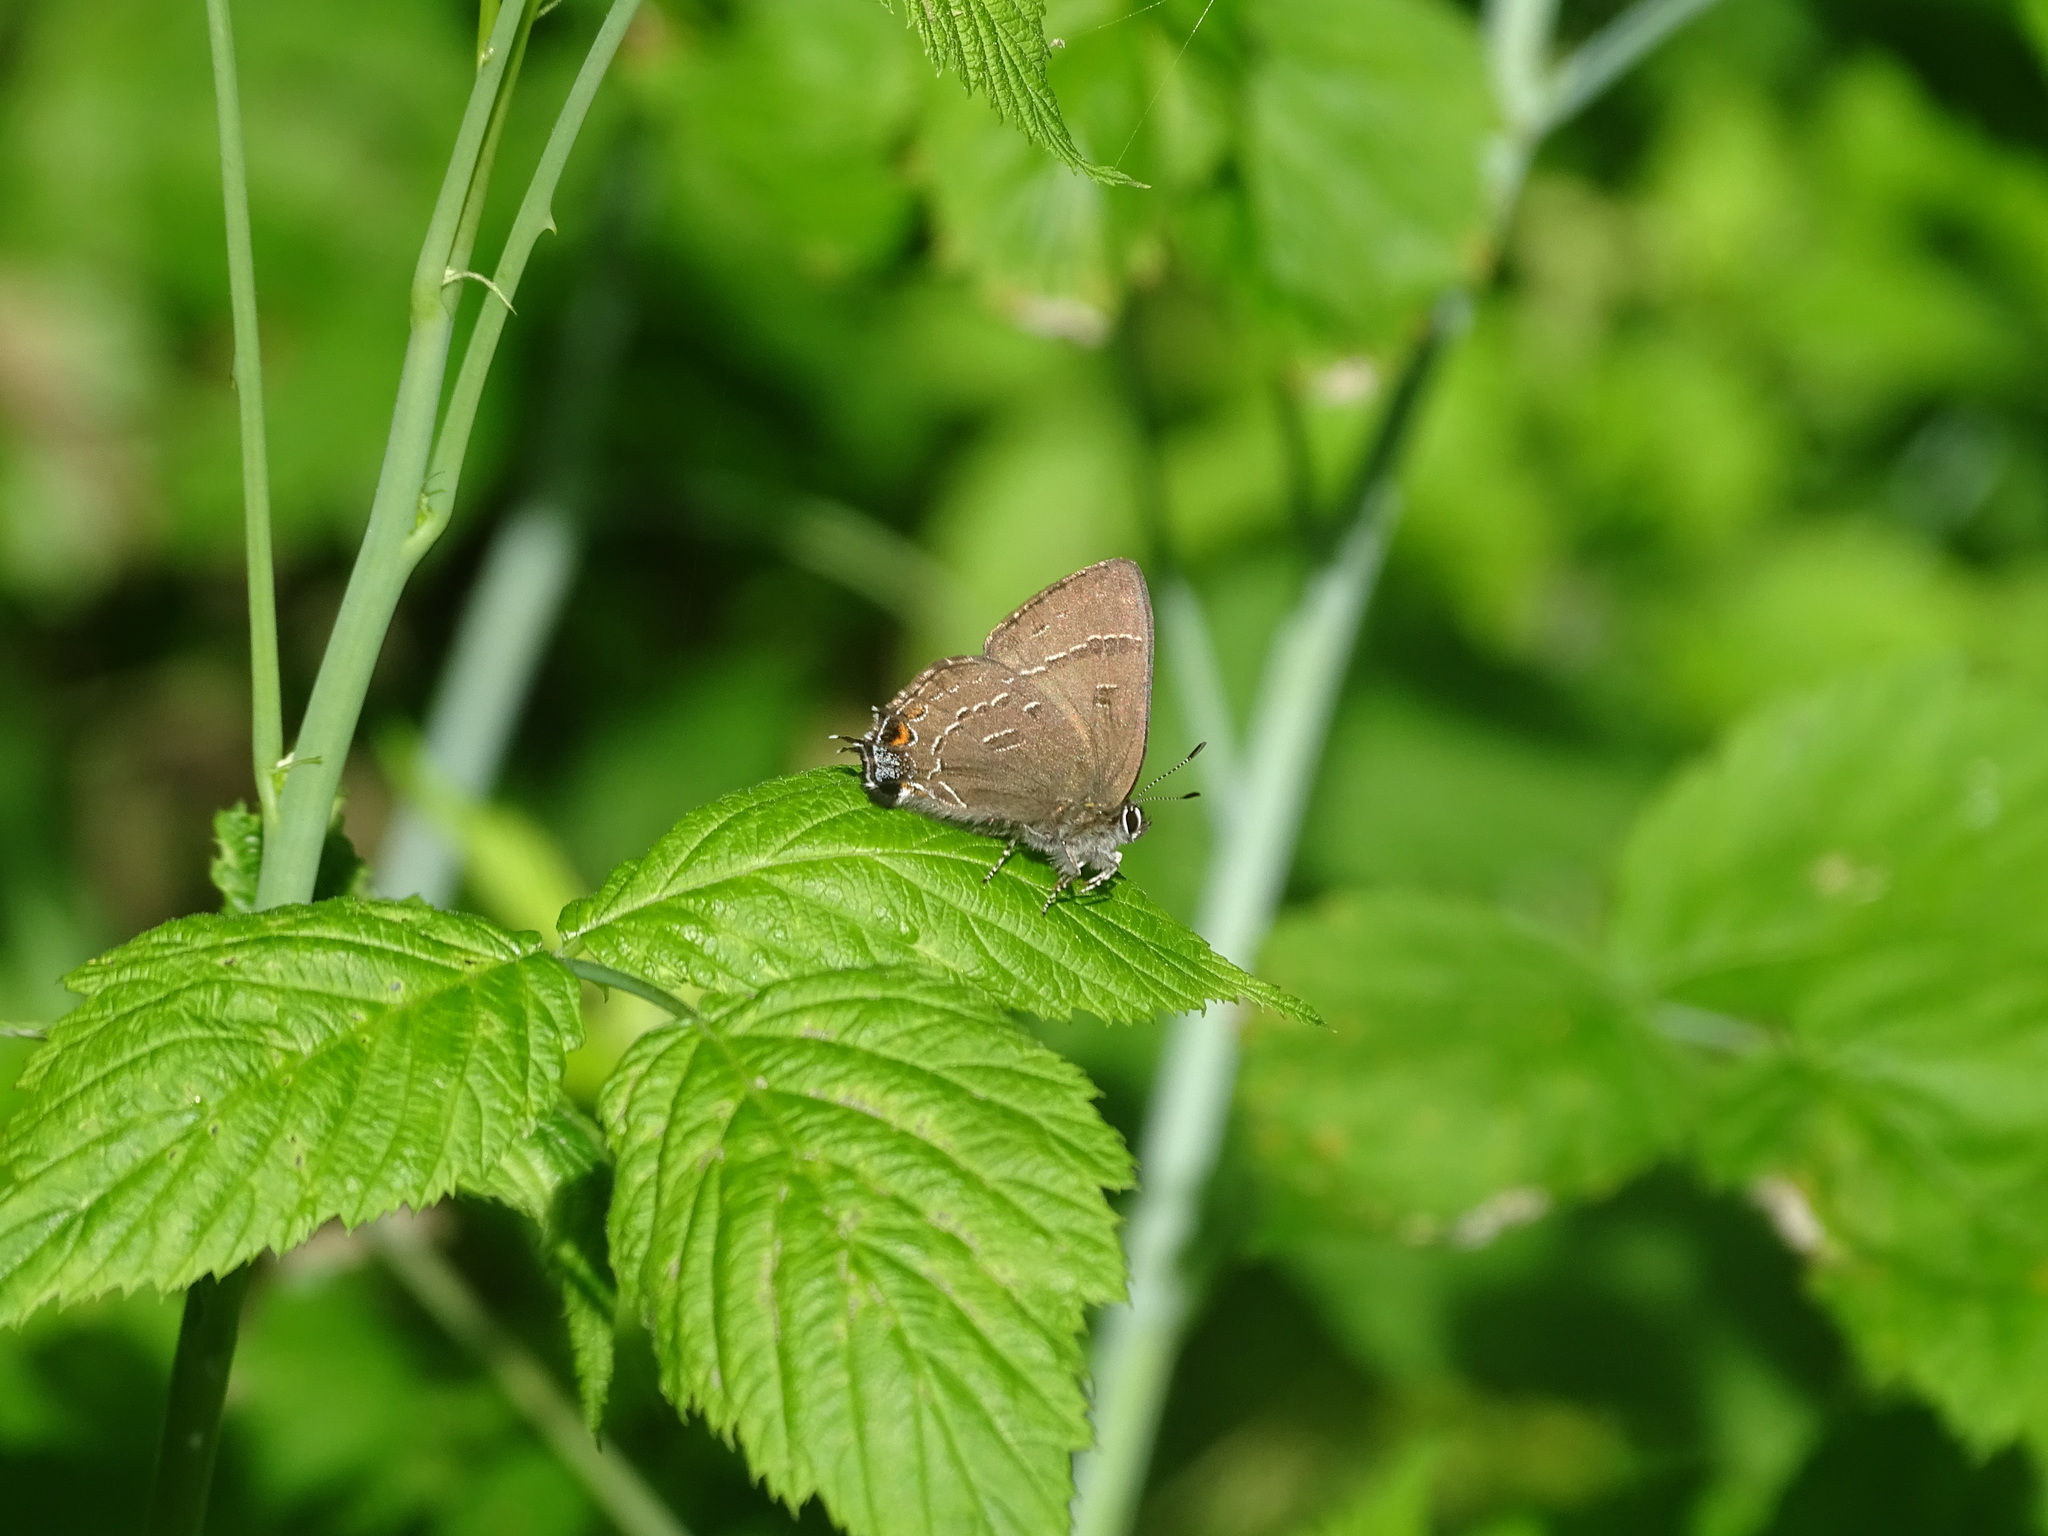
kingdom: Animalia
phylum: Arthropoda
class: Insecta
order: Lepidoptera
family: Lycaenidae
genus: Satyrium
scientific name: Satyrium calanus
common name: Banded hairstreak
